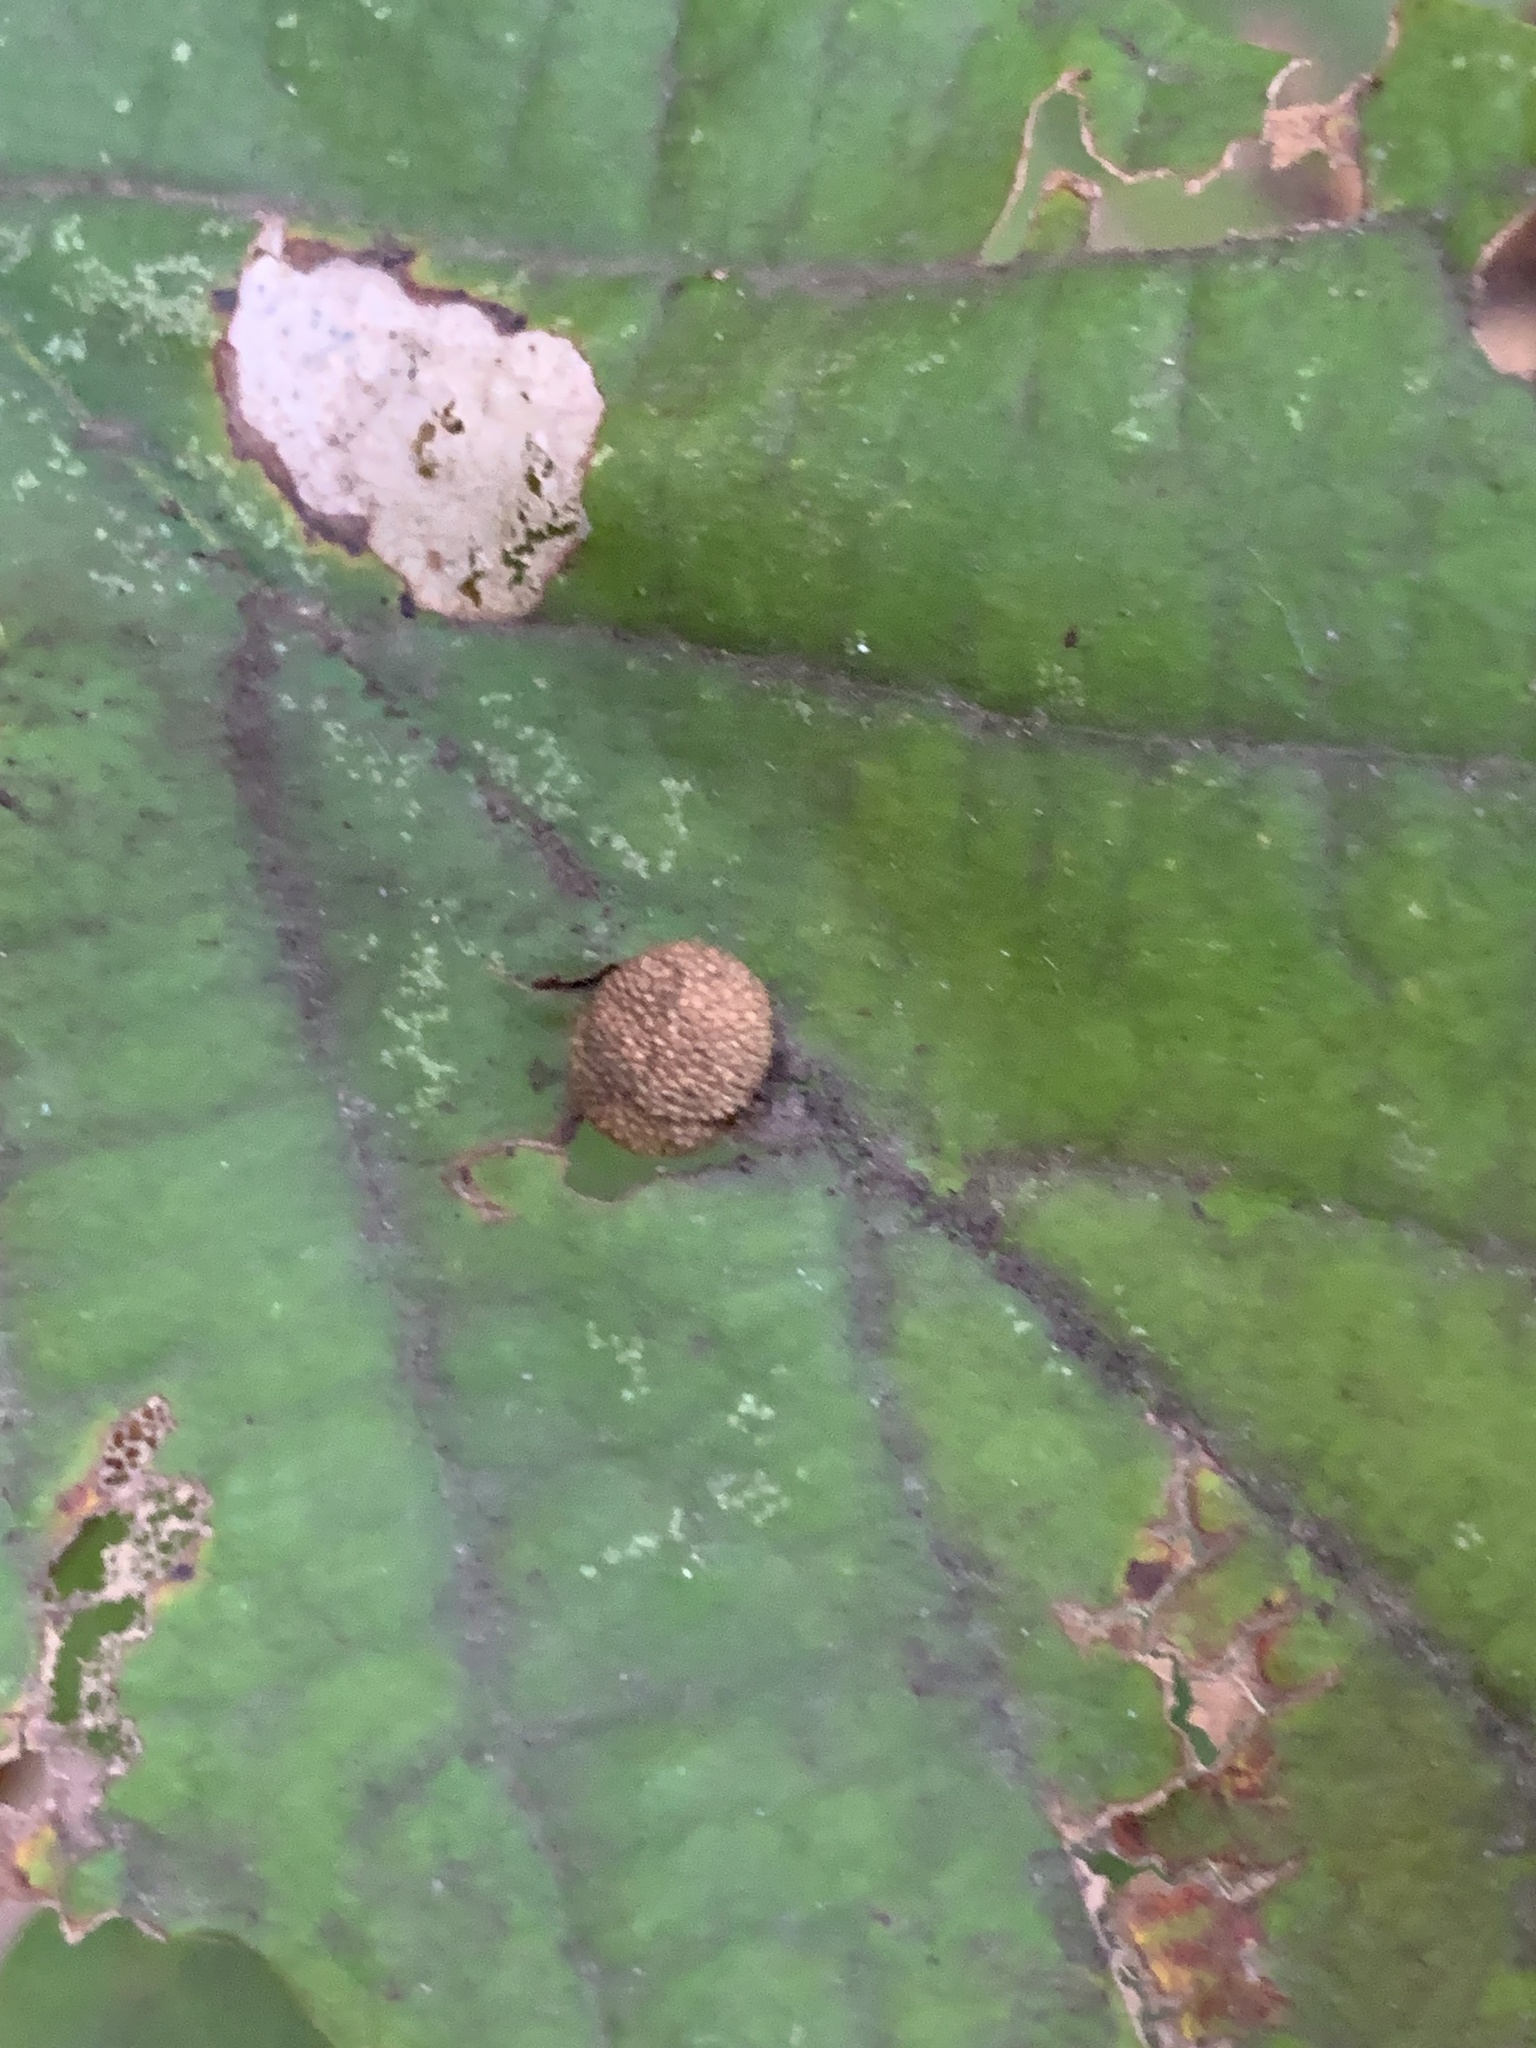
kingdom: Animalia
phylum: Arthropoda
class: Insecta
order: Hymenoptera
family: Cynipidae
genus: Acraspis
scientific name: Acraspis quercushirta
